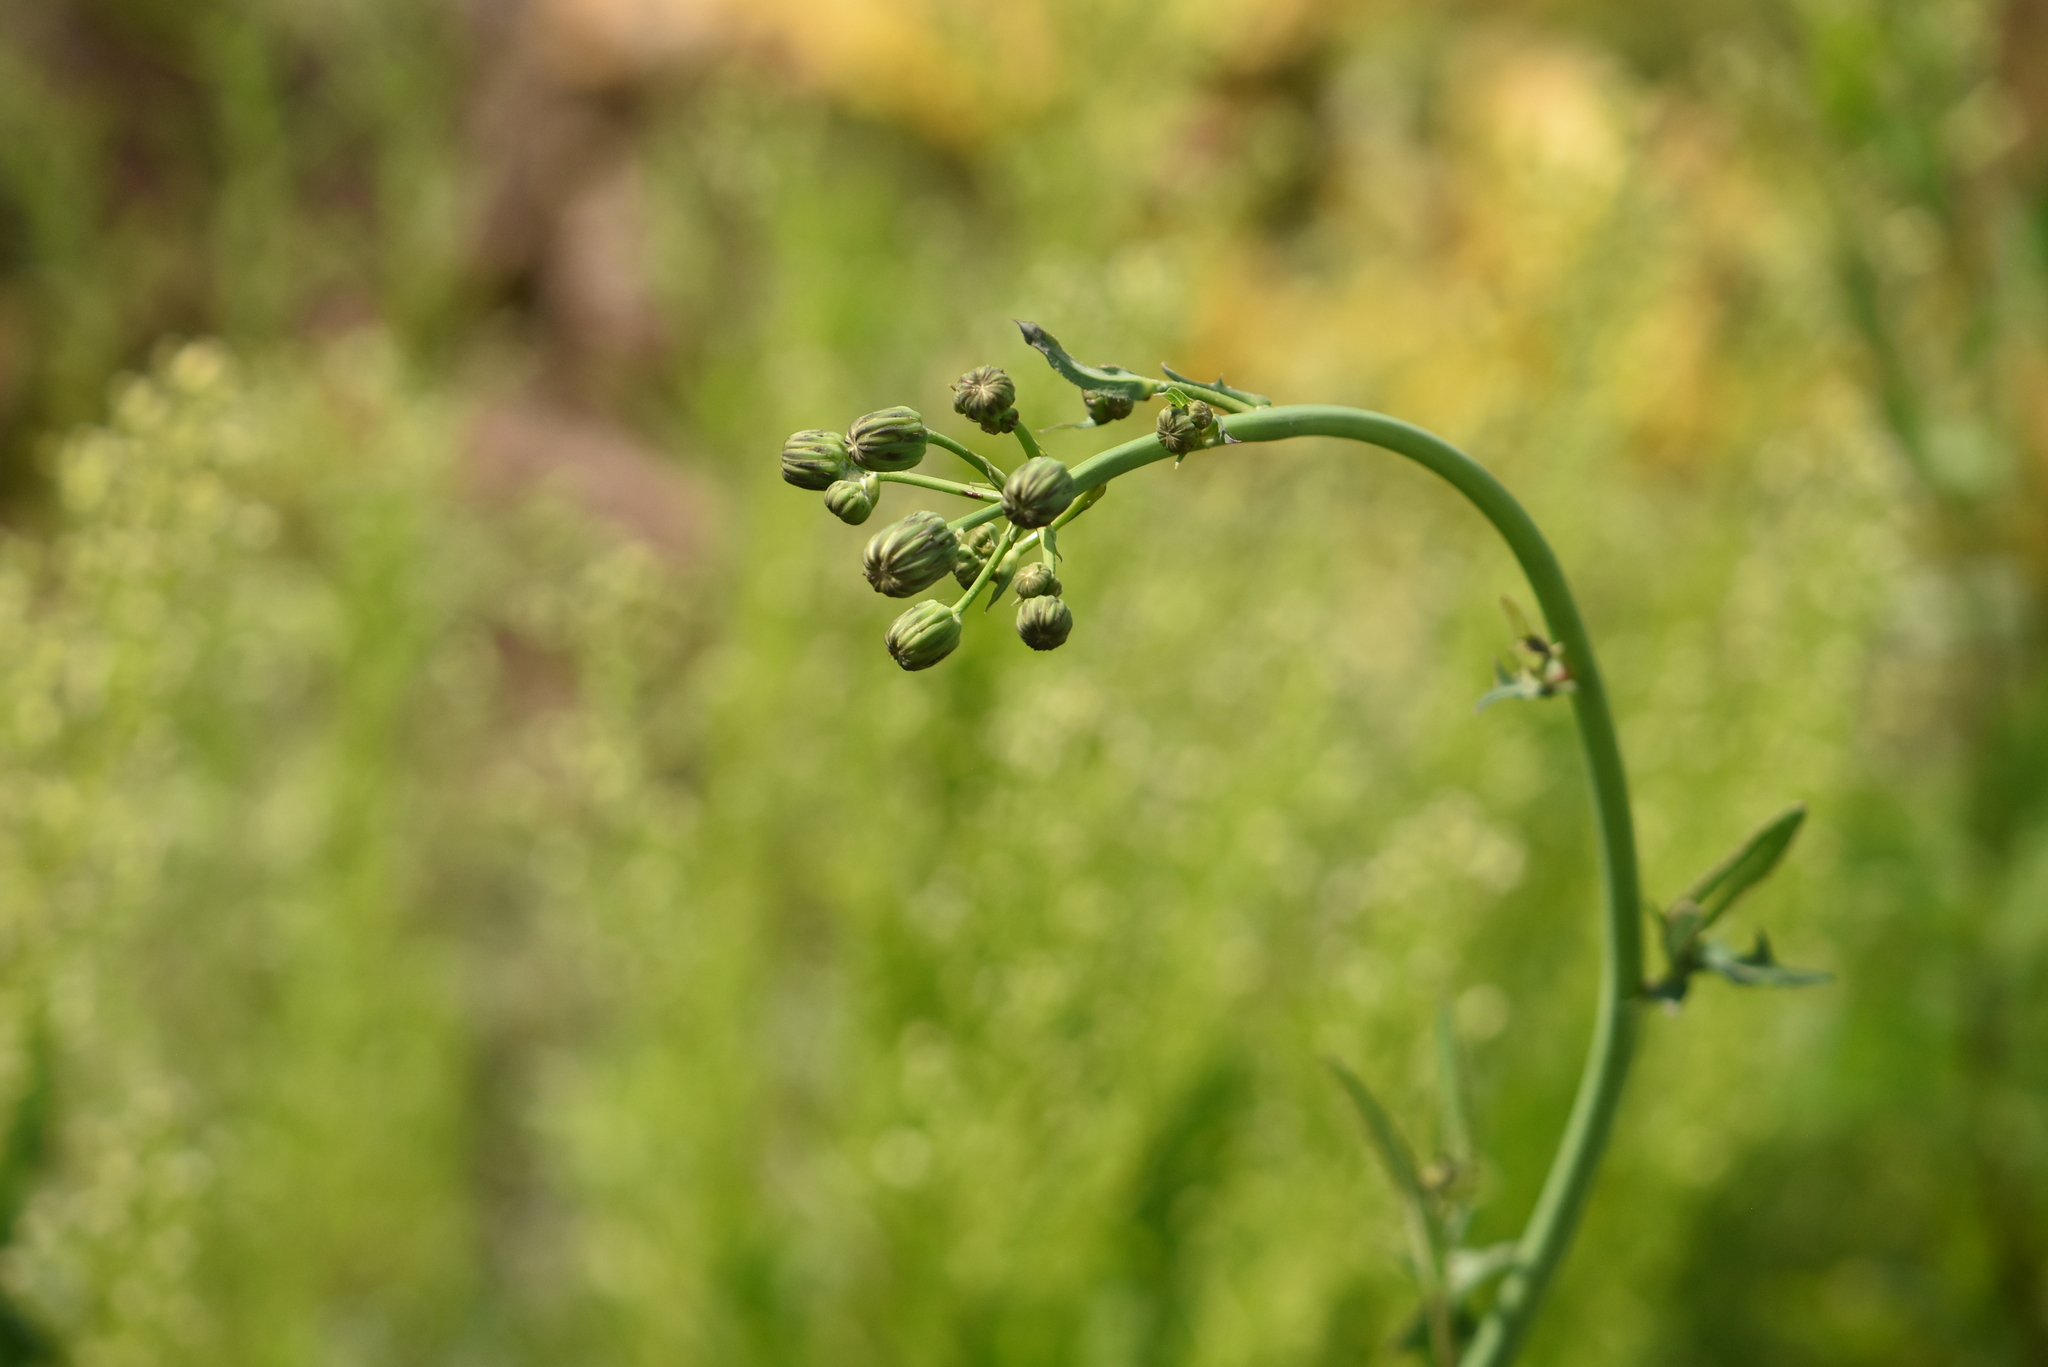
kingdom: Plantae
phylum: Tracheophyta
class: Magnoliopsida
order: Asterales
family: Asteraceae
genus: Sonchus
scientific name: Sonchus arvensis
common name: Perennial sow-thistle
